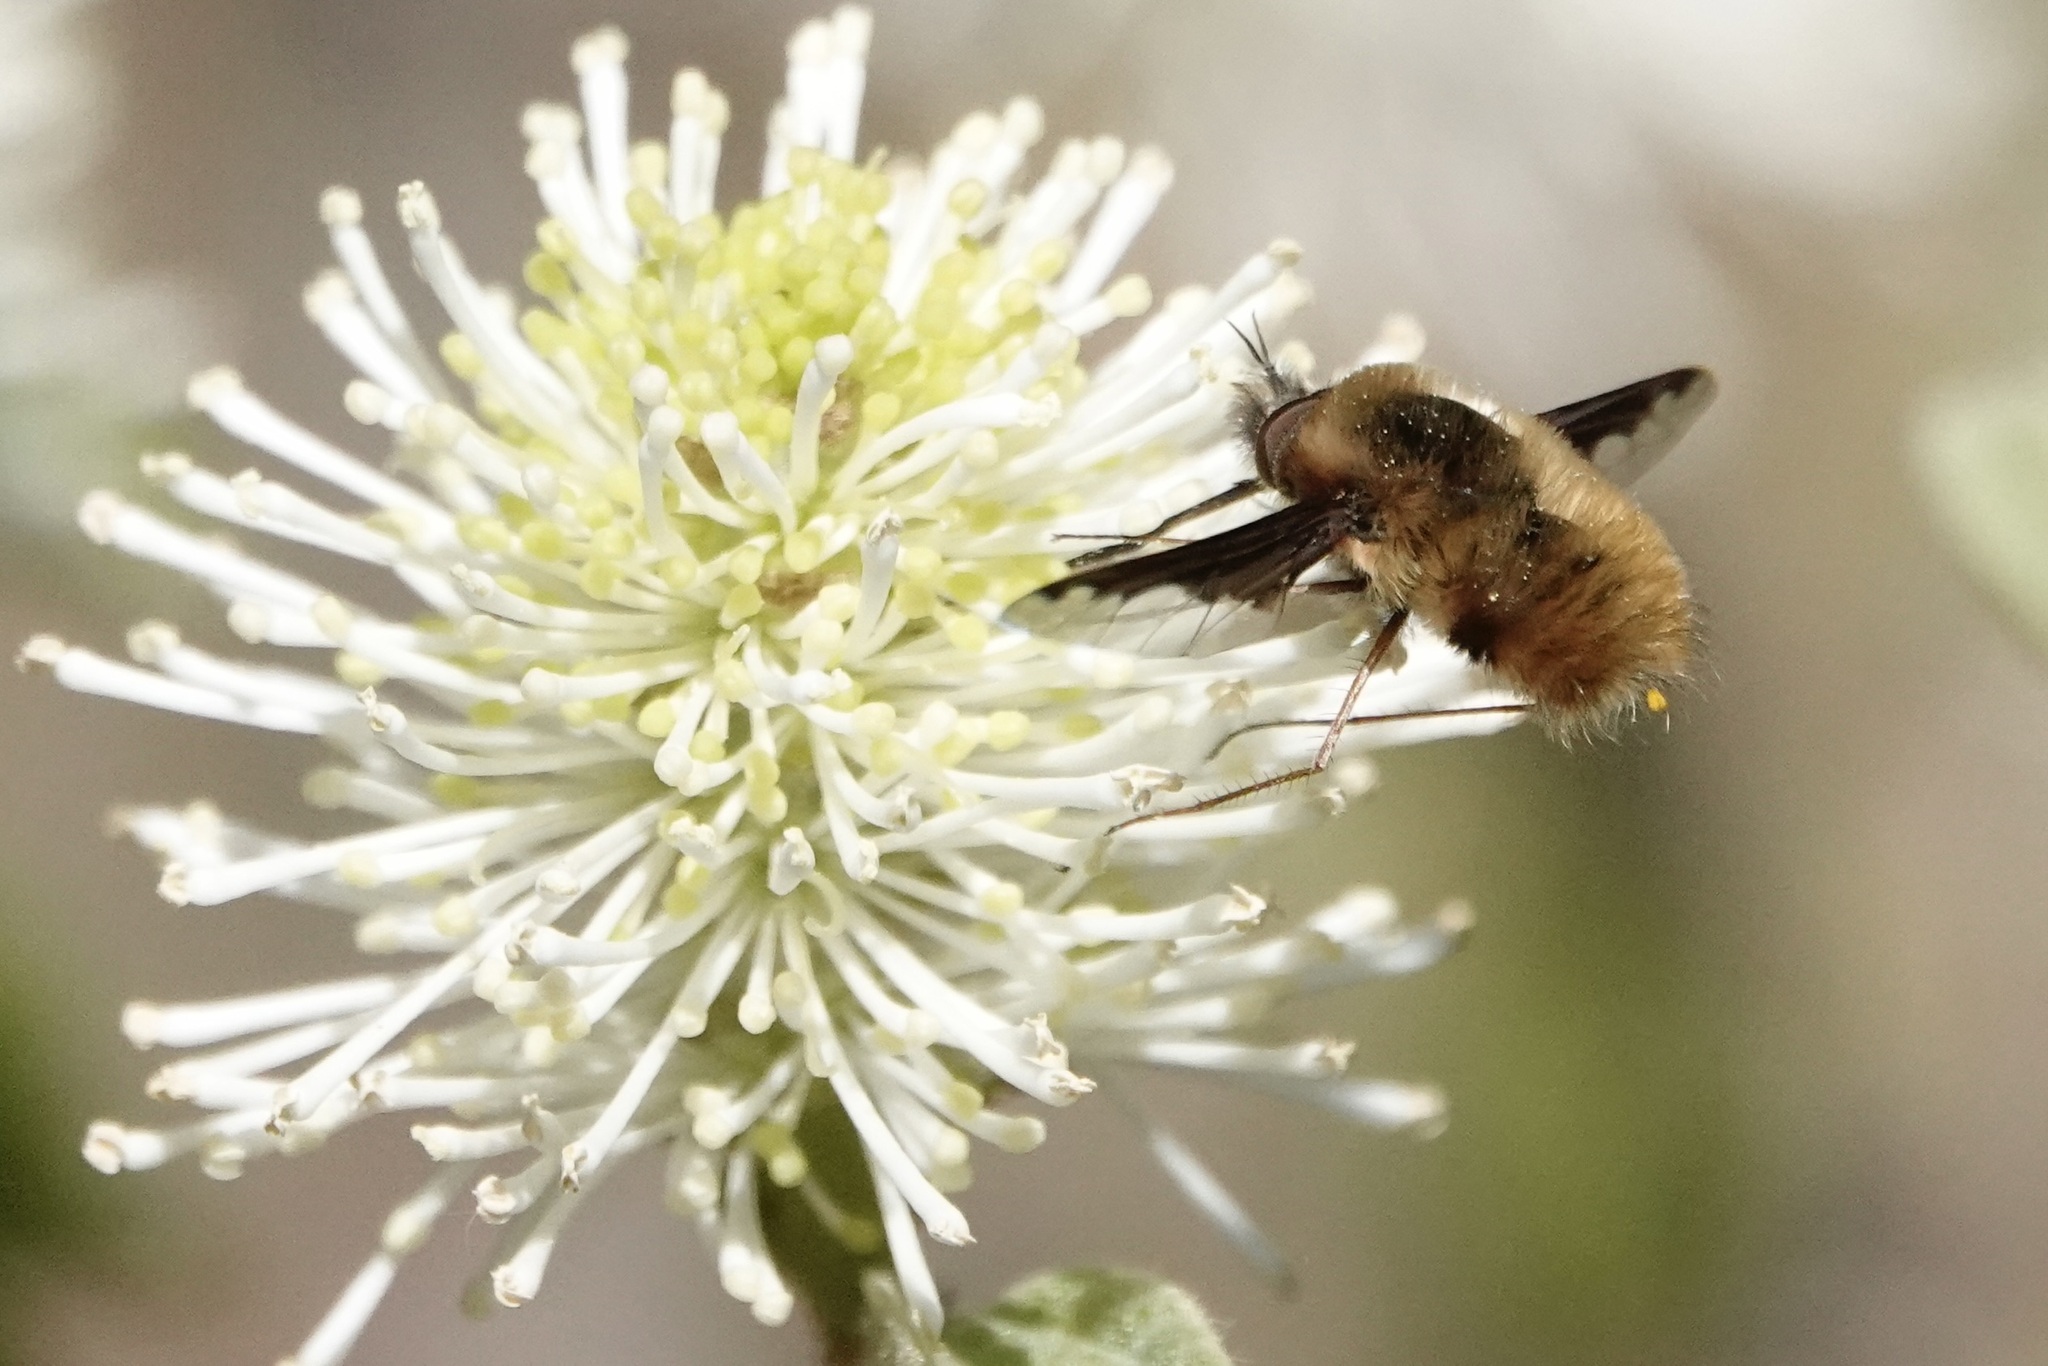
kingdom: Animalia
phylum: Arthropoda
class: Insecta
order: Diptera
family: Bombyliidae
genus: Bombylius
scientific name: Bombylius major
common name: Bee fly
